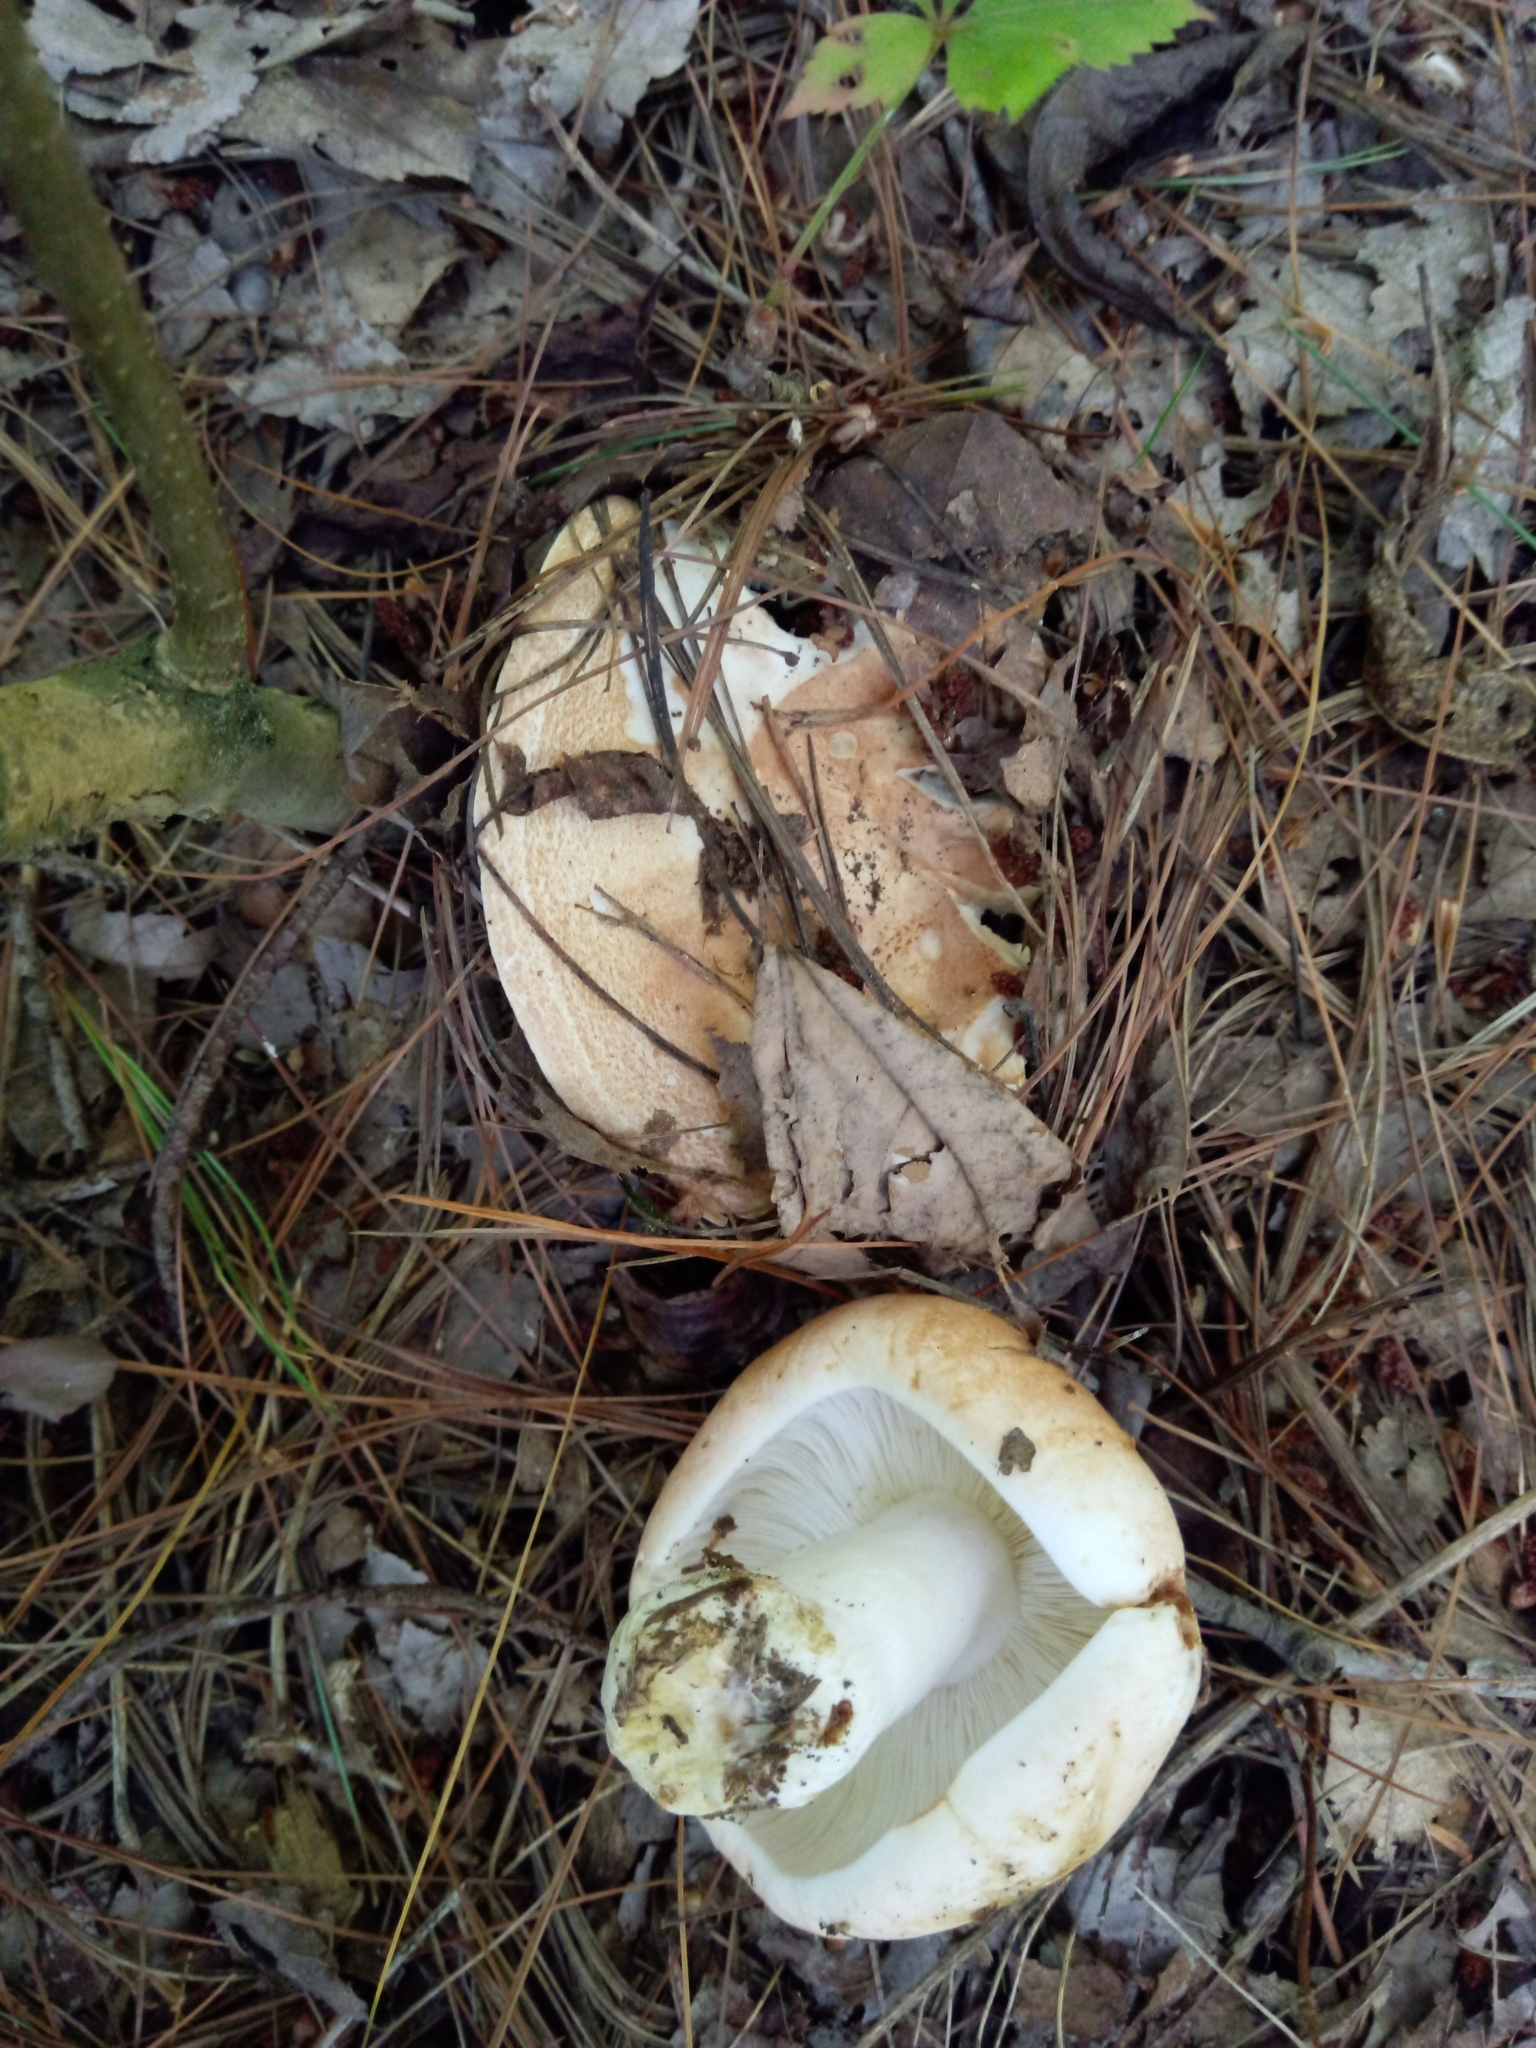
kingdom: Fungi
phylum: Basidiomycota
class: Agaricomycetes
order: Russulales
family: Russulaceae
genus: Russula
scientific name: Russula compacta
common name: Fishbiscuit russula
